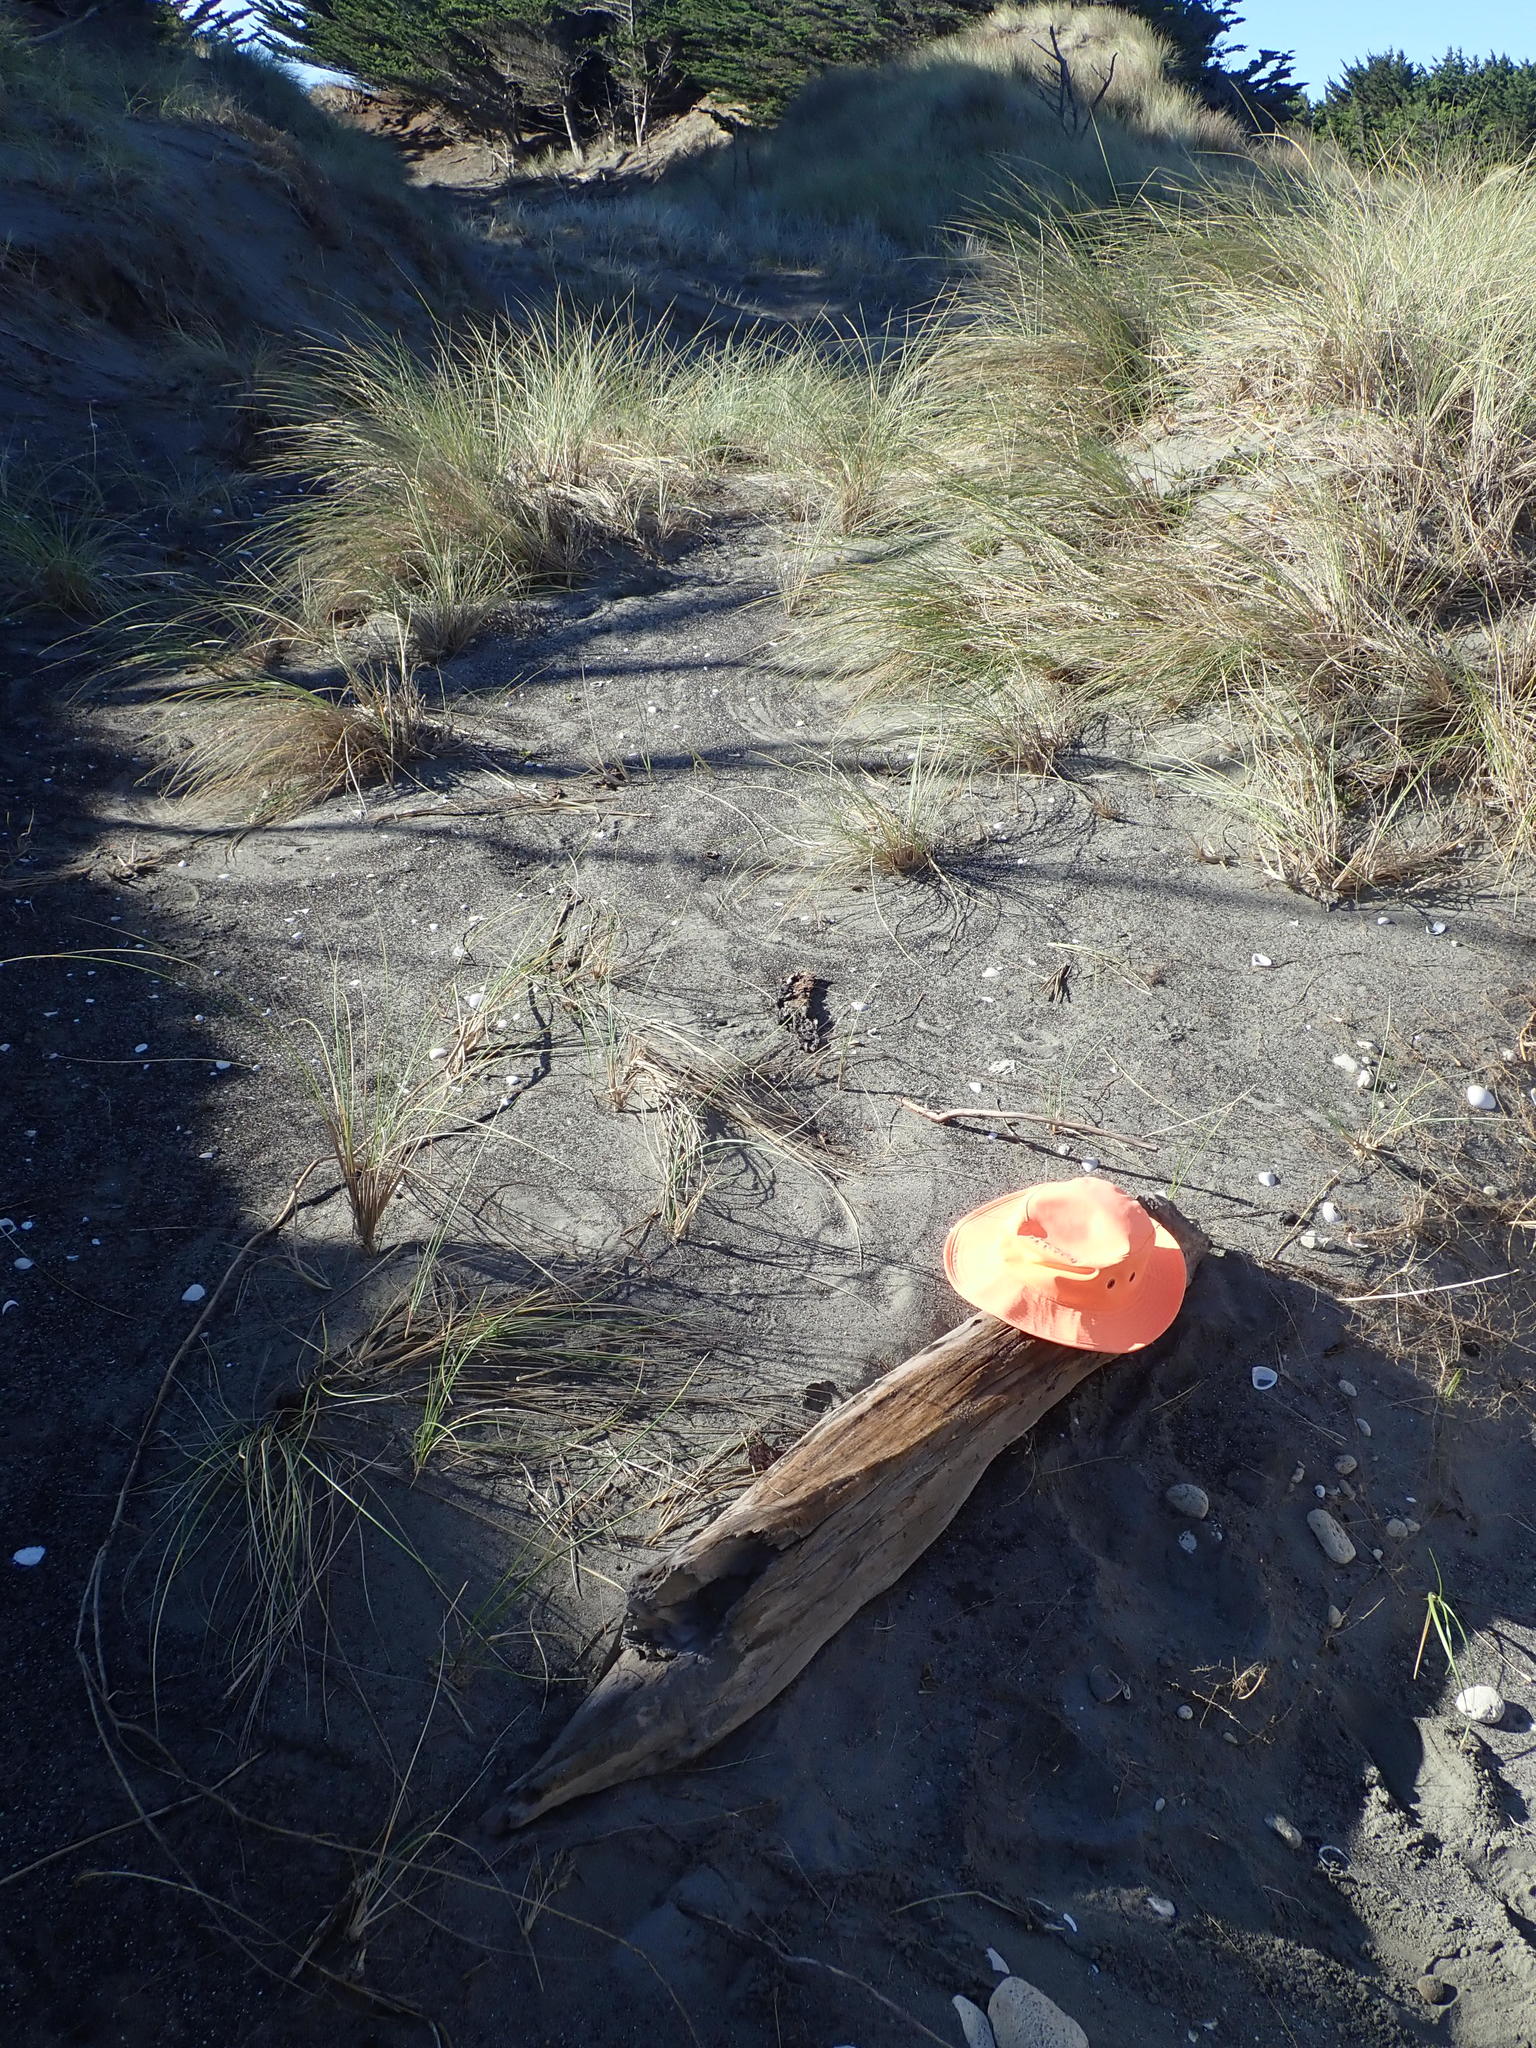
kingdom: Animalia
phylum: Arthropoda
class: Arachnida
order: Araneae
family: Theridiidae
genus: Steatoda
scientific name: Steatoda capensis
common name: Cobweb weaver
